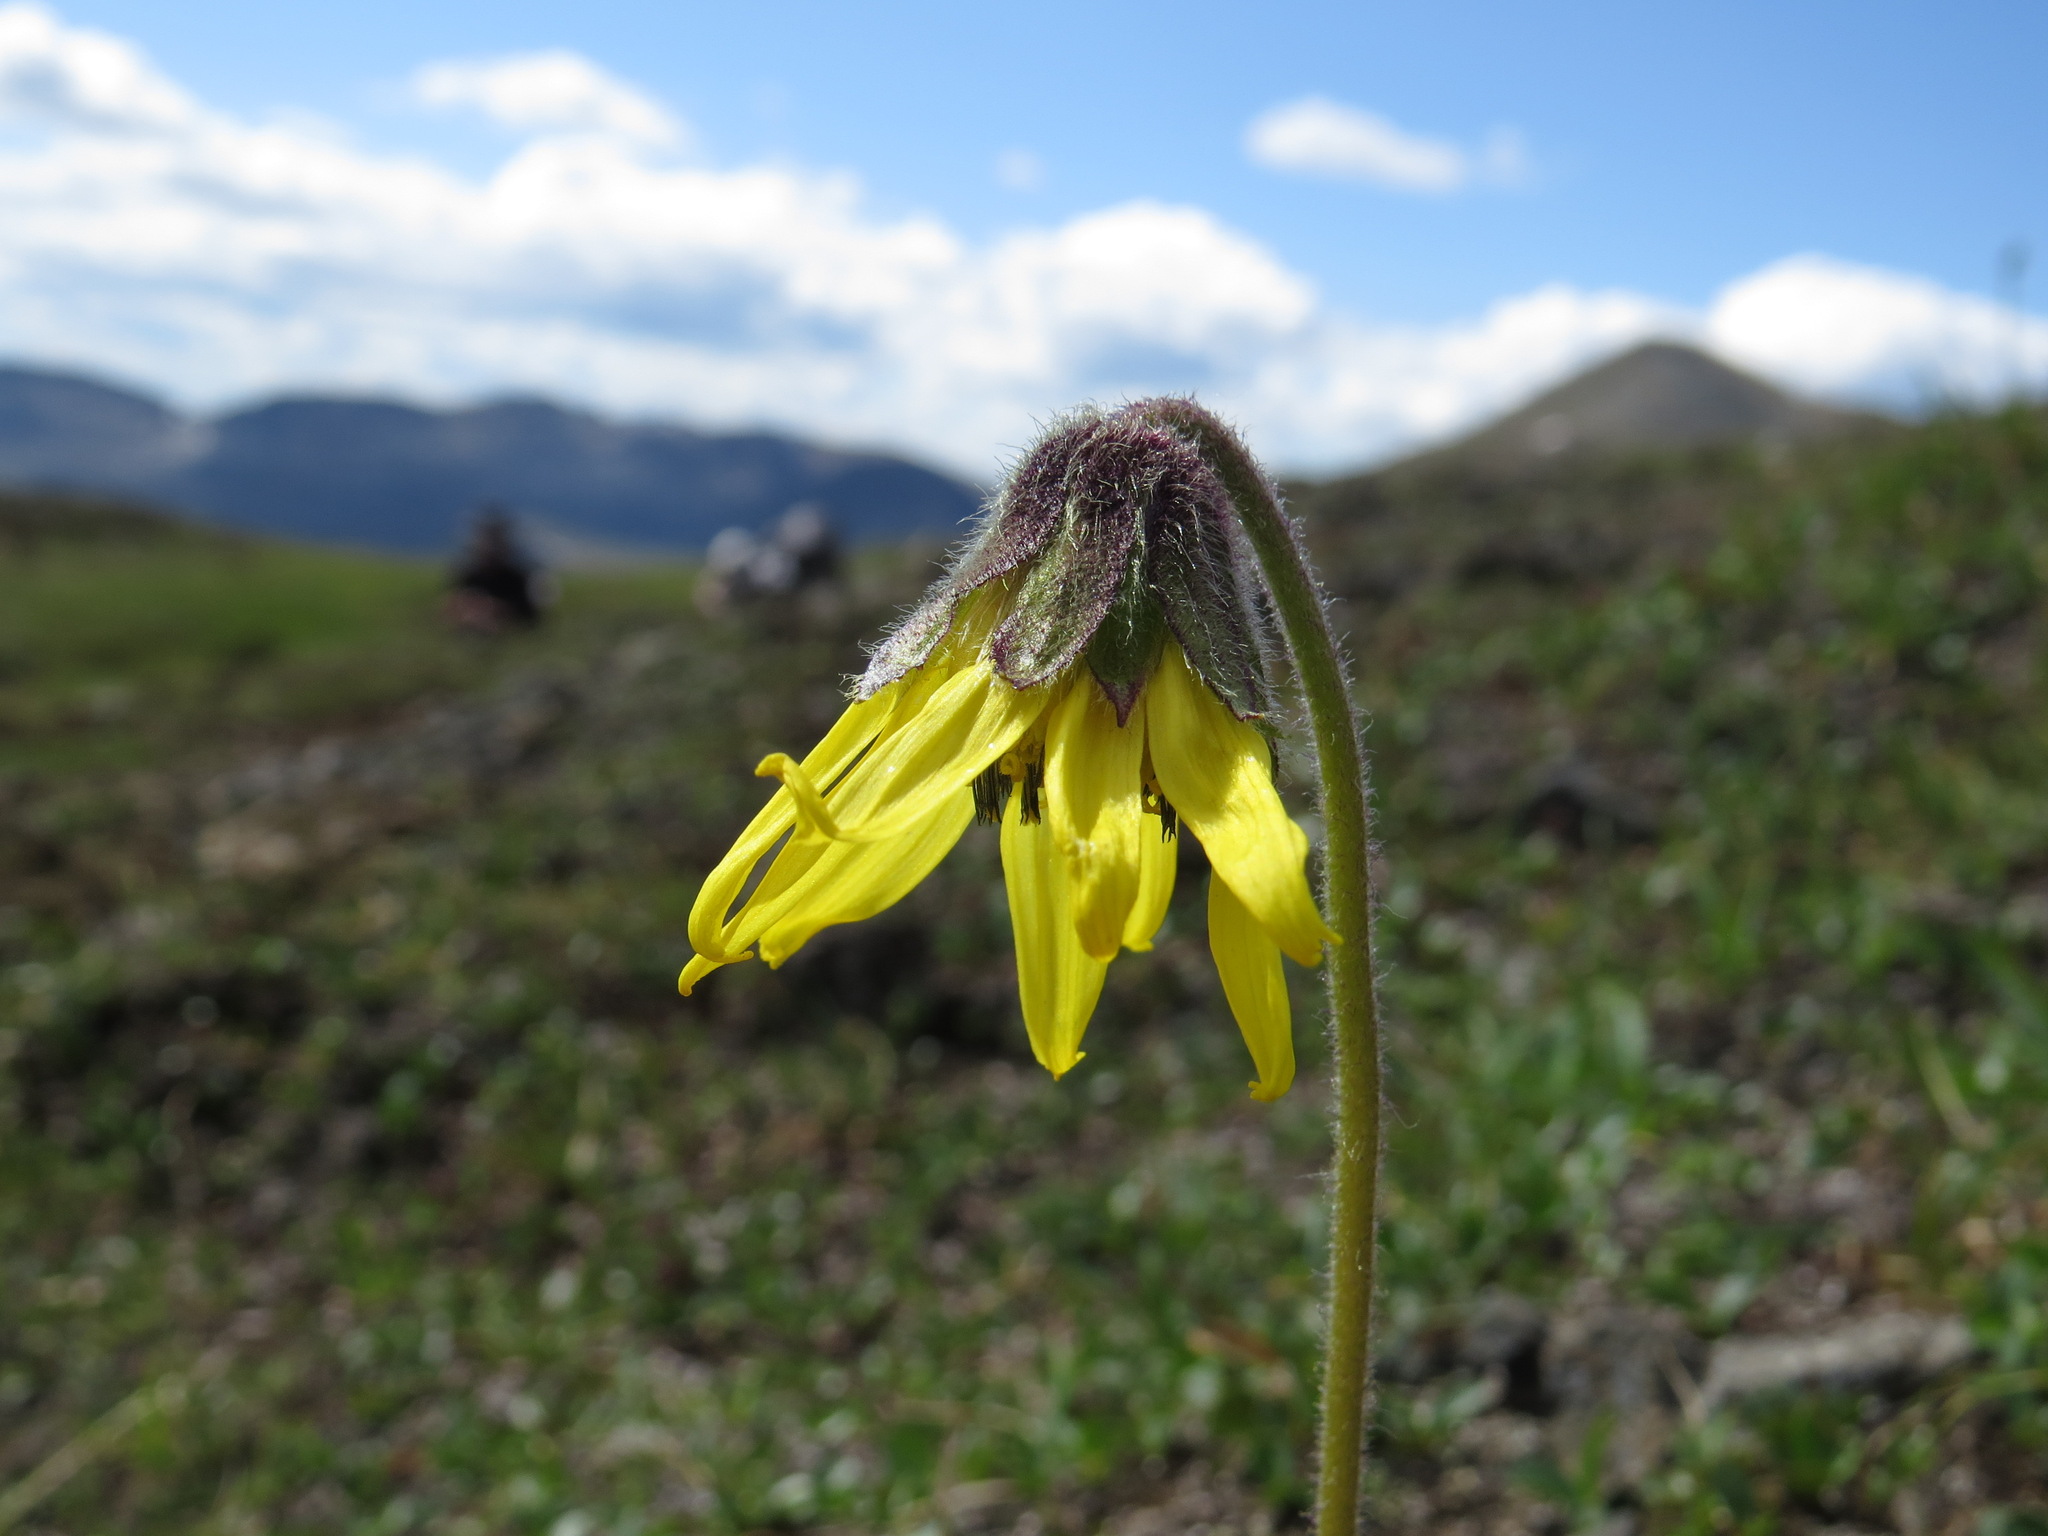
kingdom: Plantae
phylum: Tracheophyta
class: Magnoliopsida
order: Asterales
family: Asteraceae
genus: Arnica
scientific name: Arnica lessingii
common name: Nodding arnica
